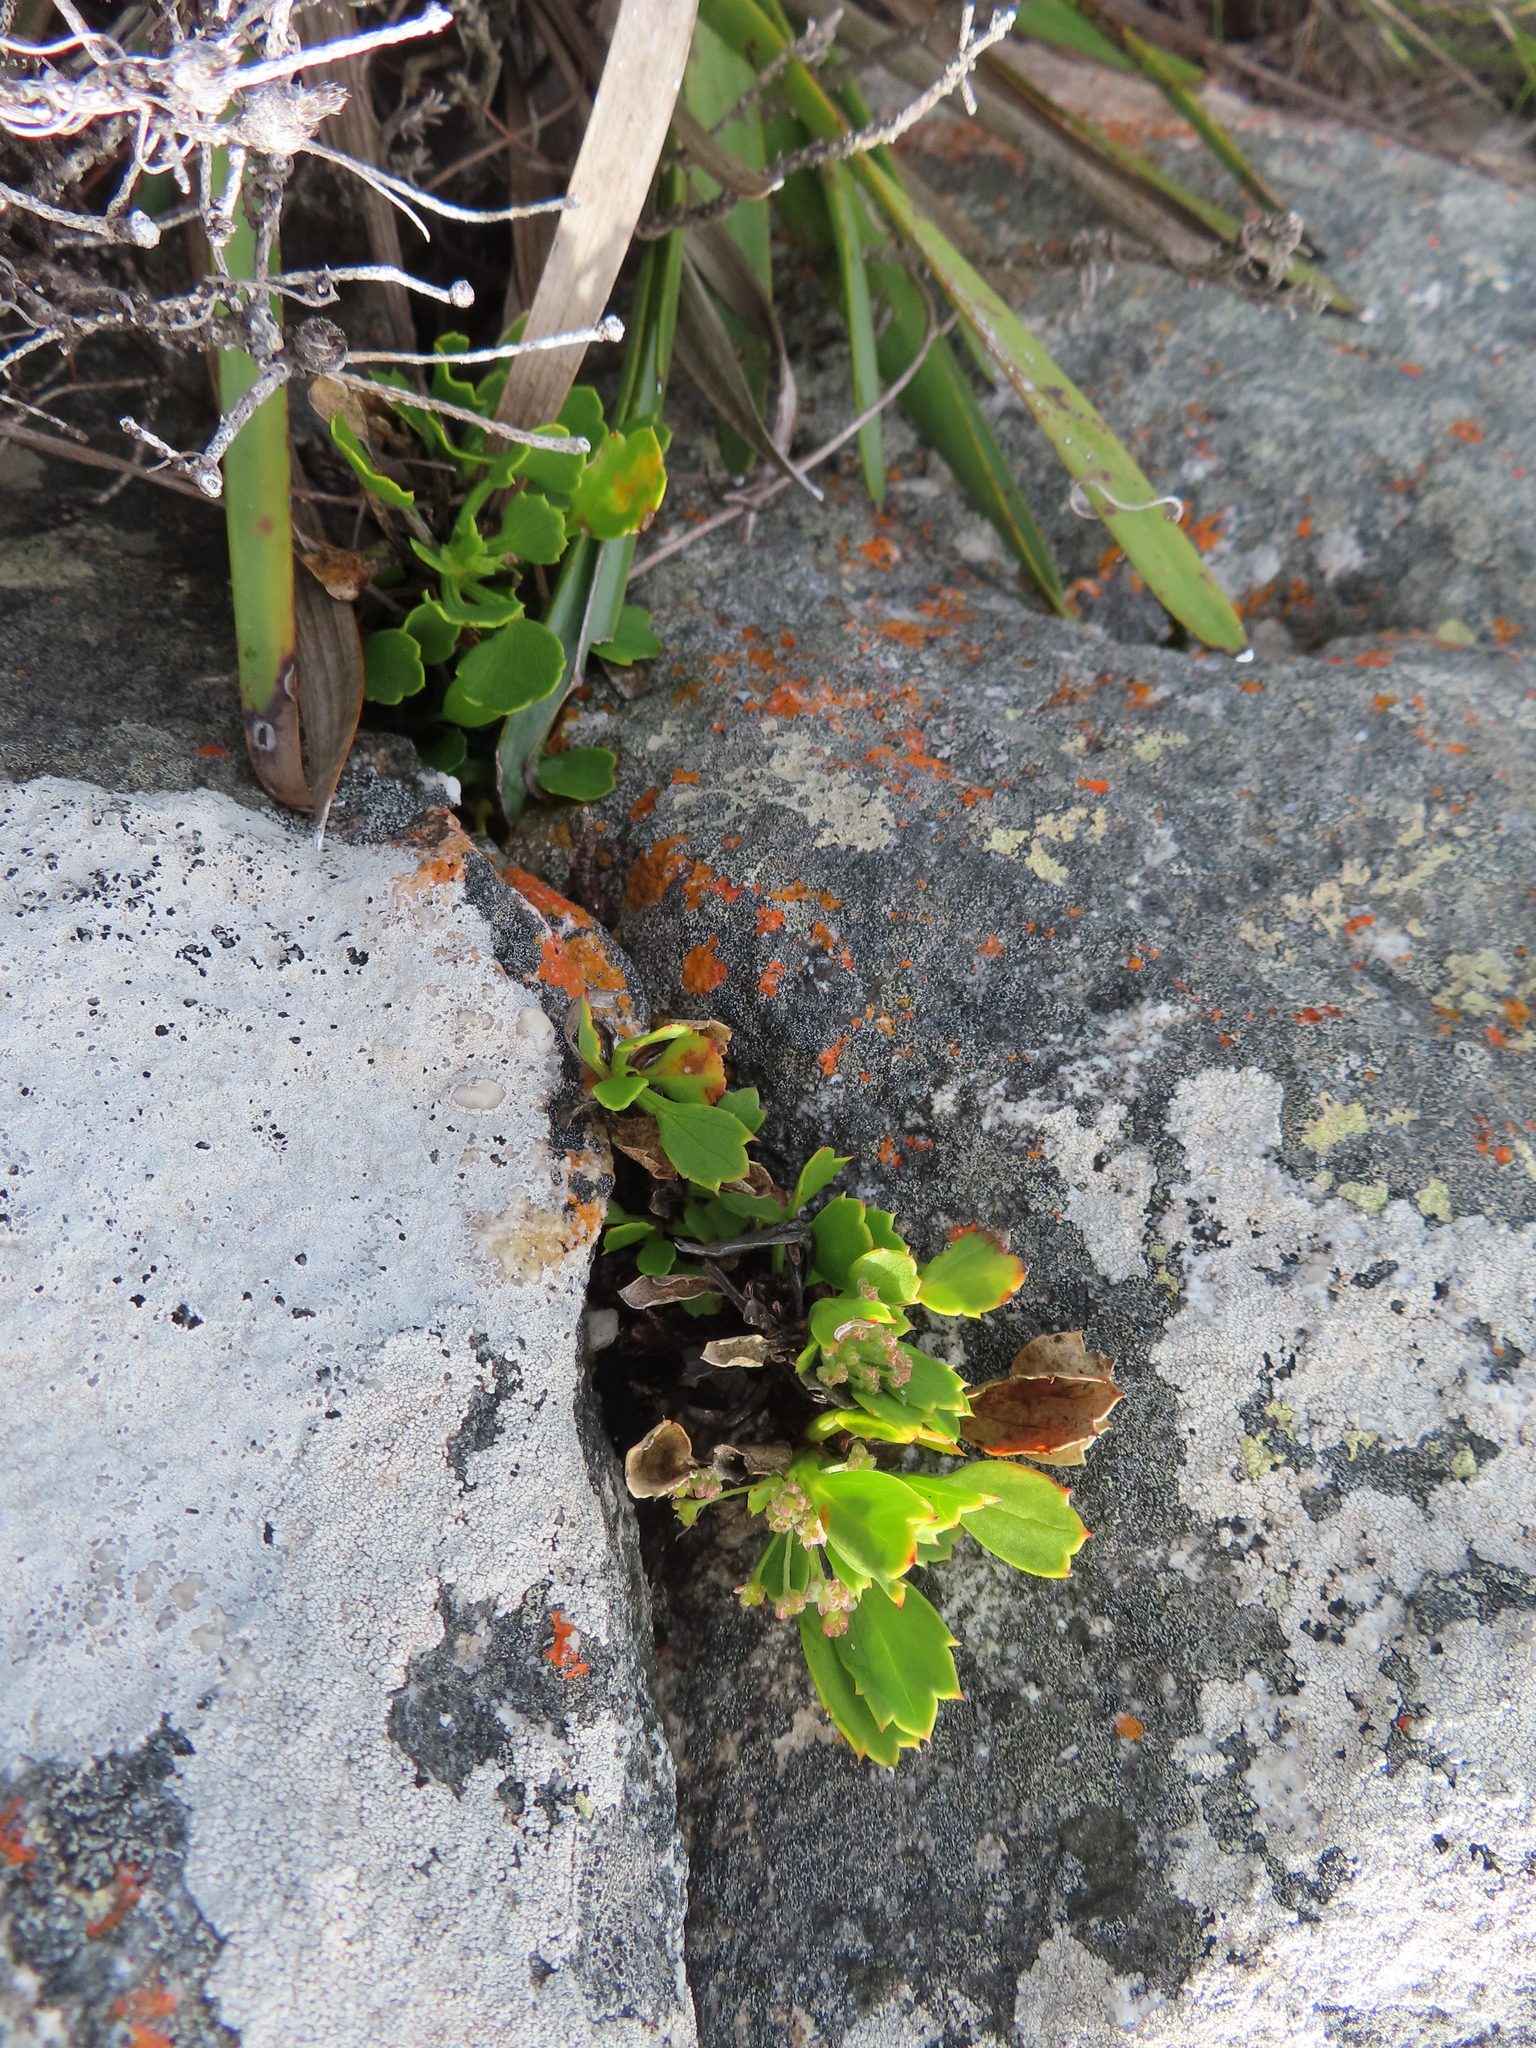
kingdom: Plantae
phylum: Tracheophyta
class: Magnoliopsida
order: Apiales
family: Apiaceae
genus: Centella
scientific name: Centella triloba
